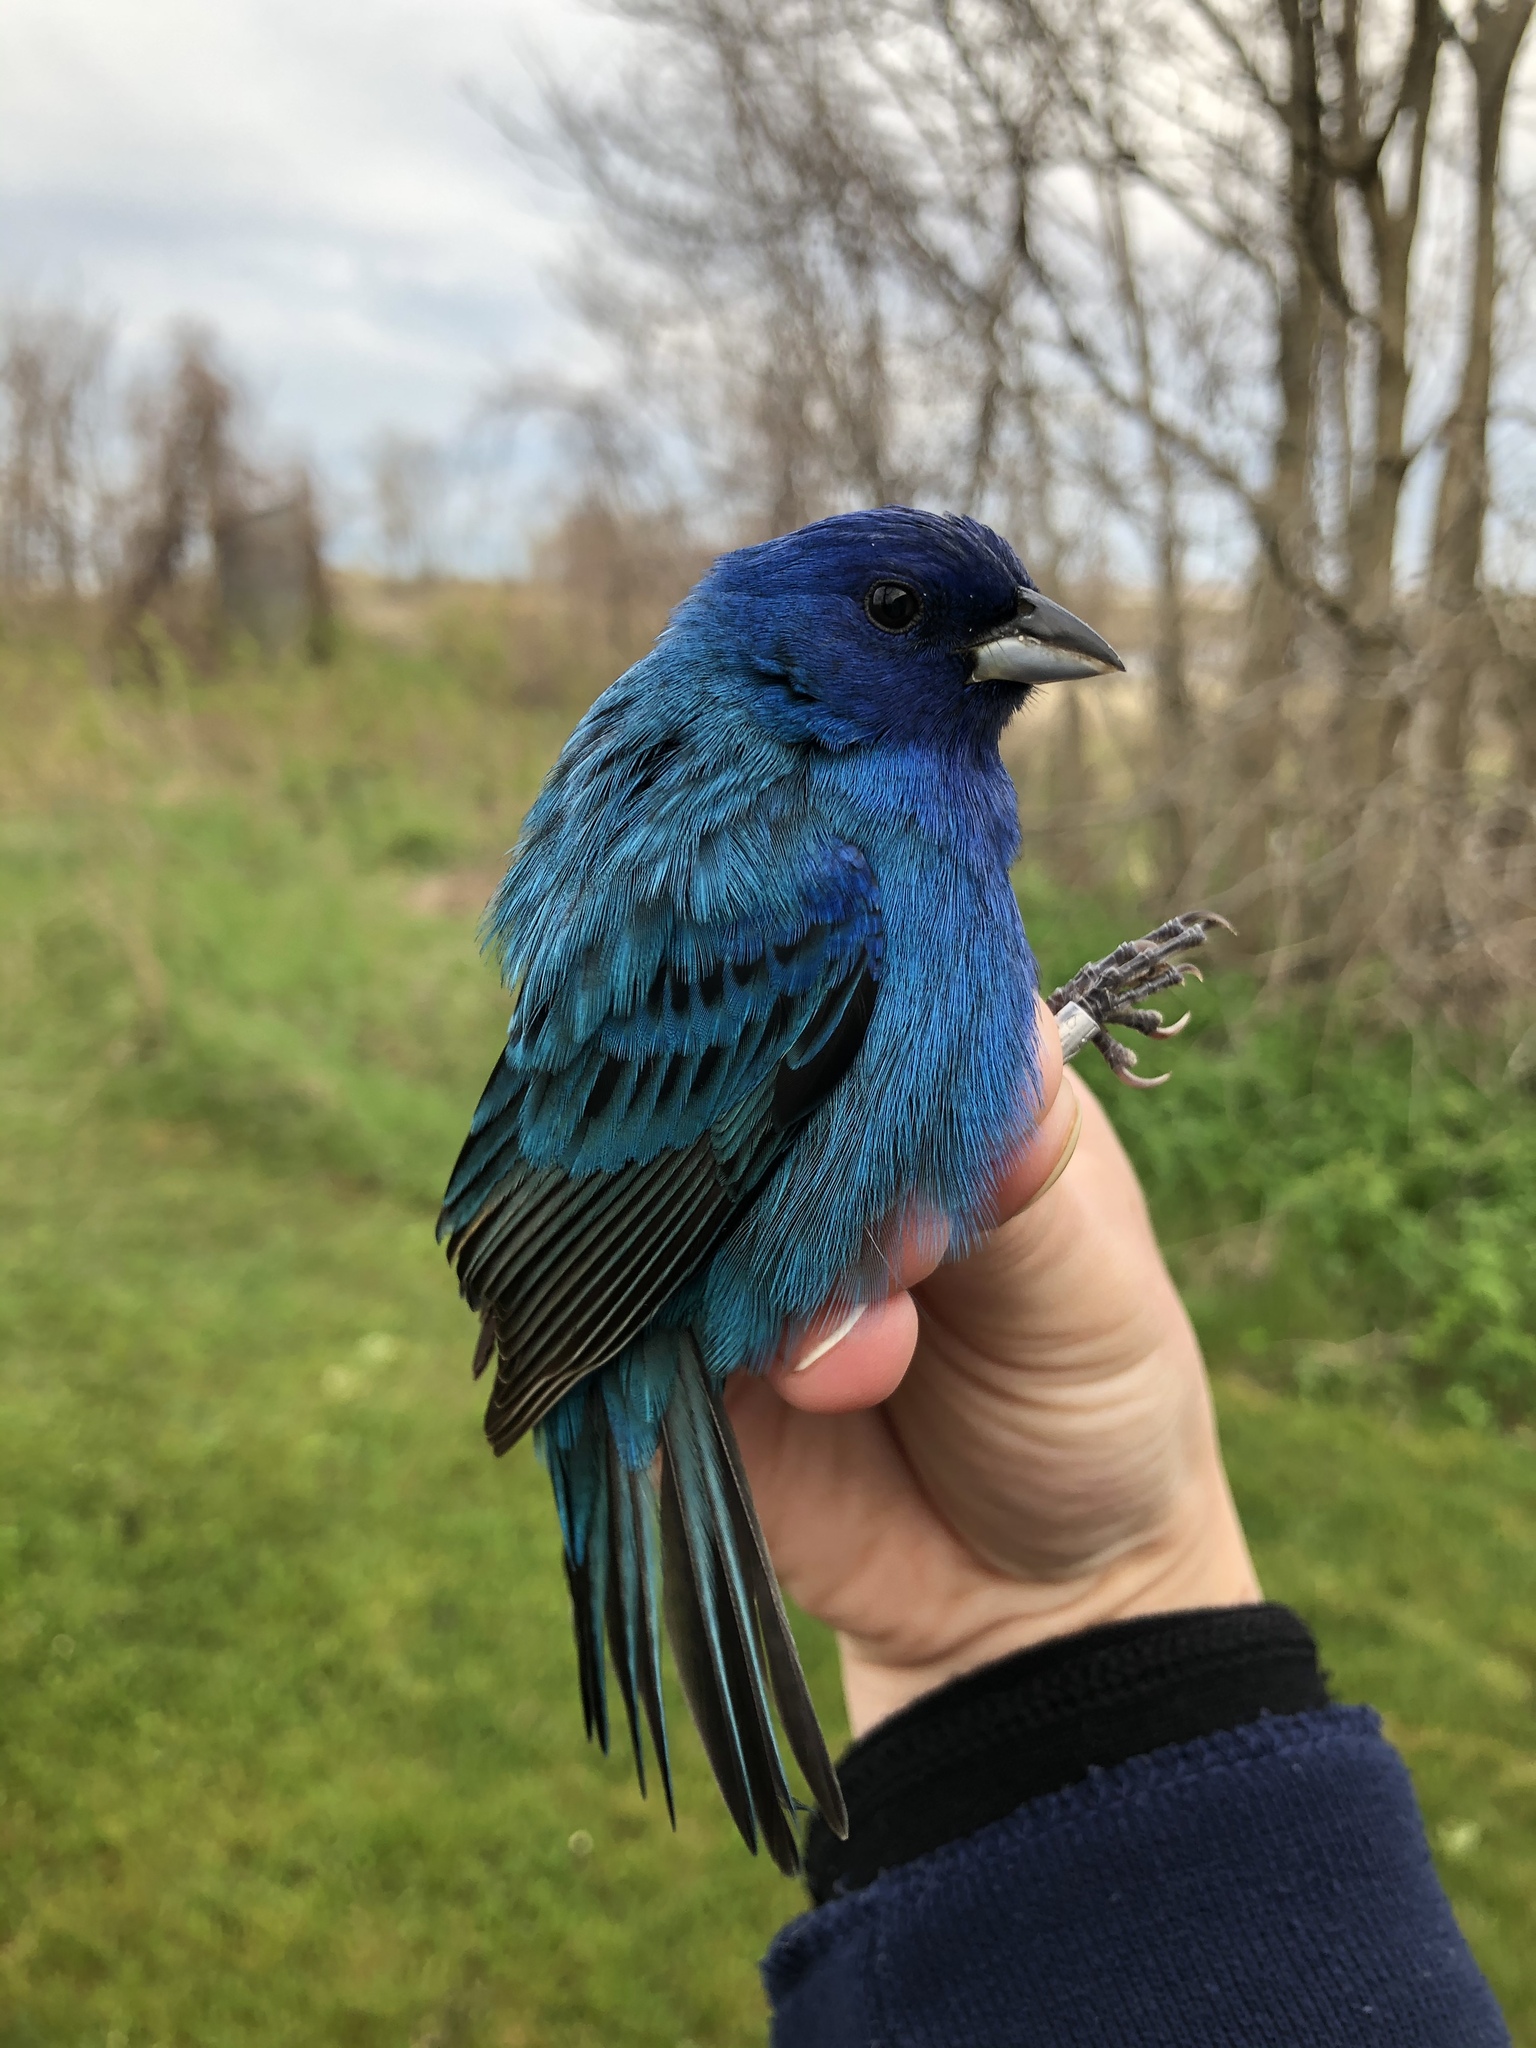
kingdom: Animalia
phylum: Chordata
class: Aves
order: Passeriformes
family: Cardinalidae
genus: Passerina
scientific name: Passerina cyanea
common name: Indigo bunting
